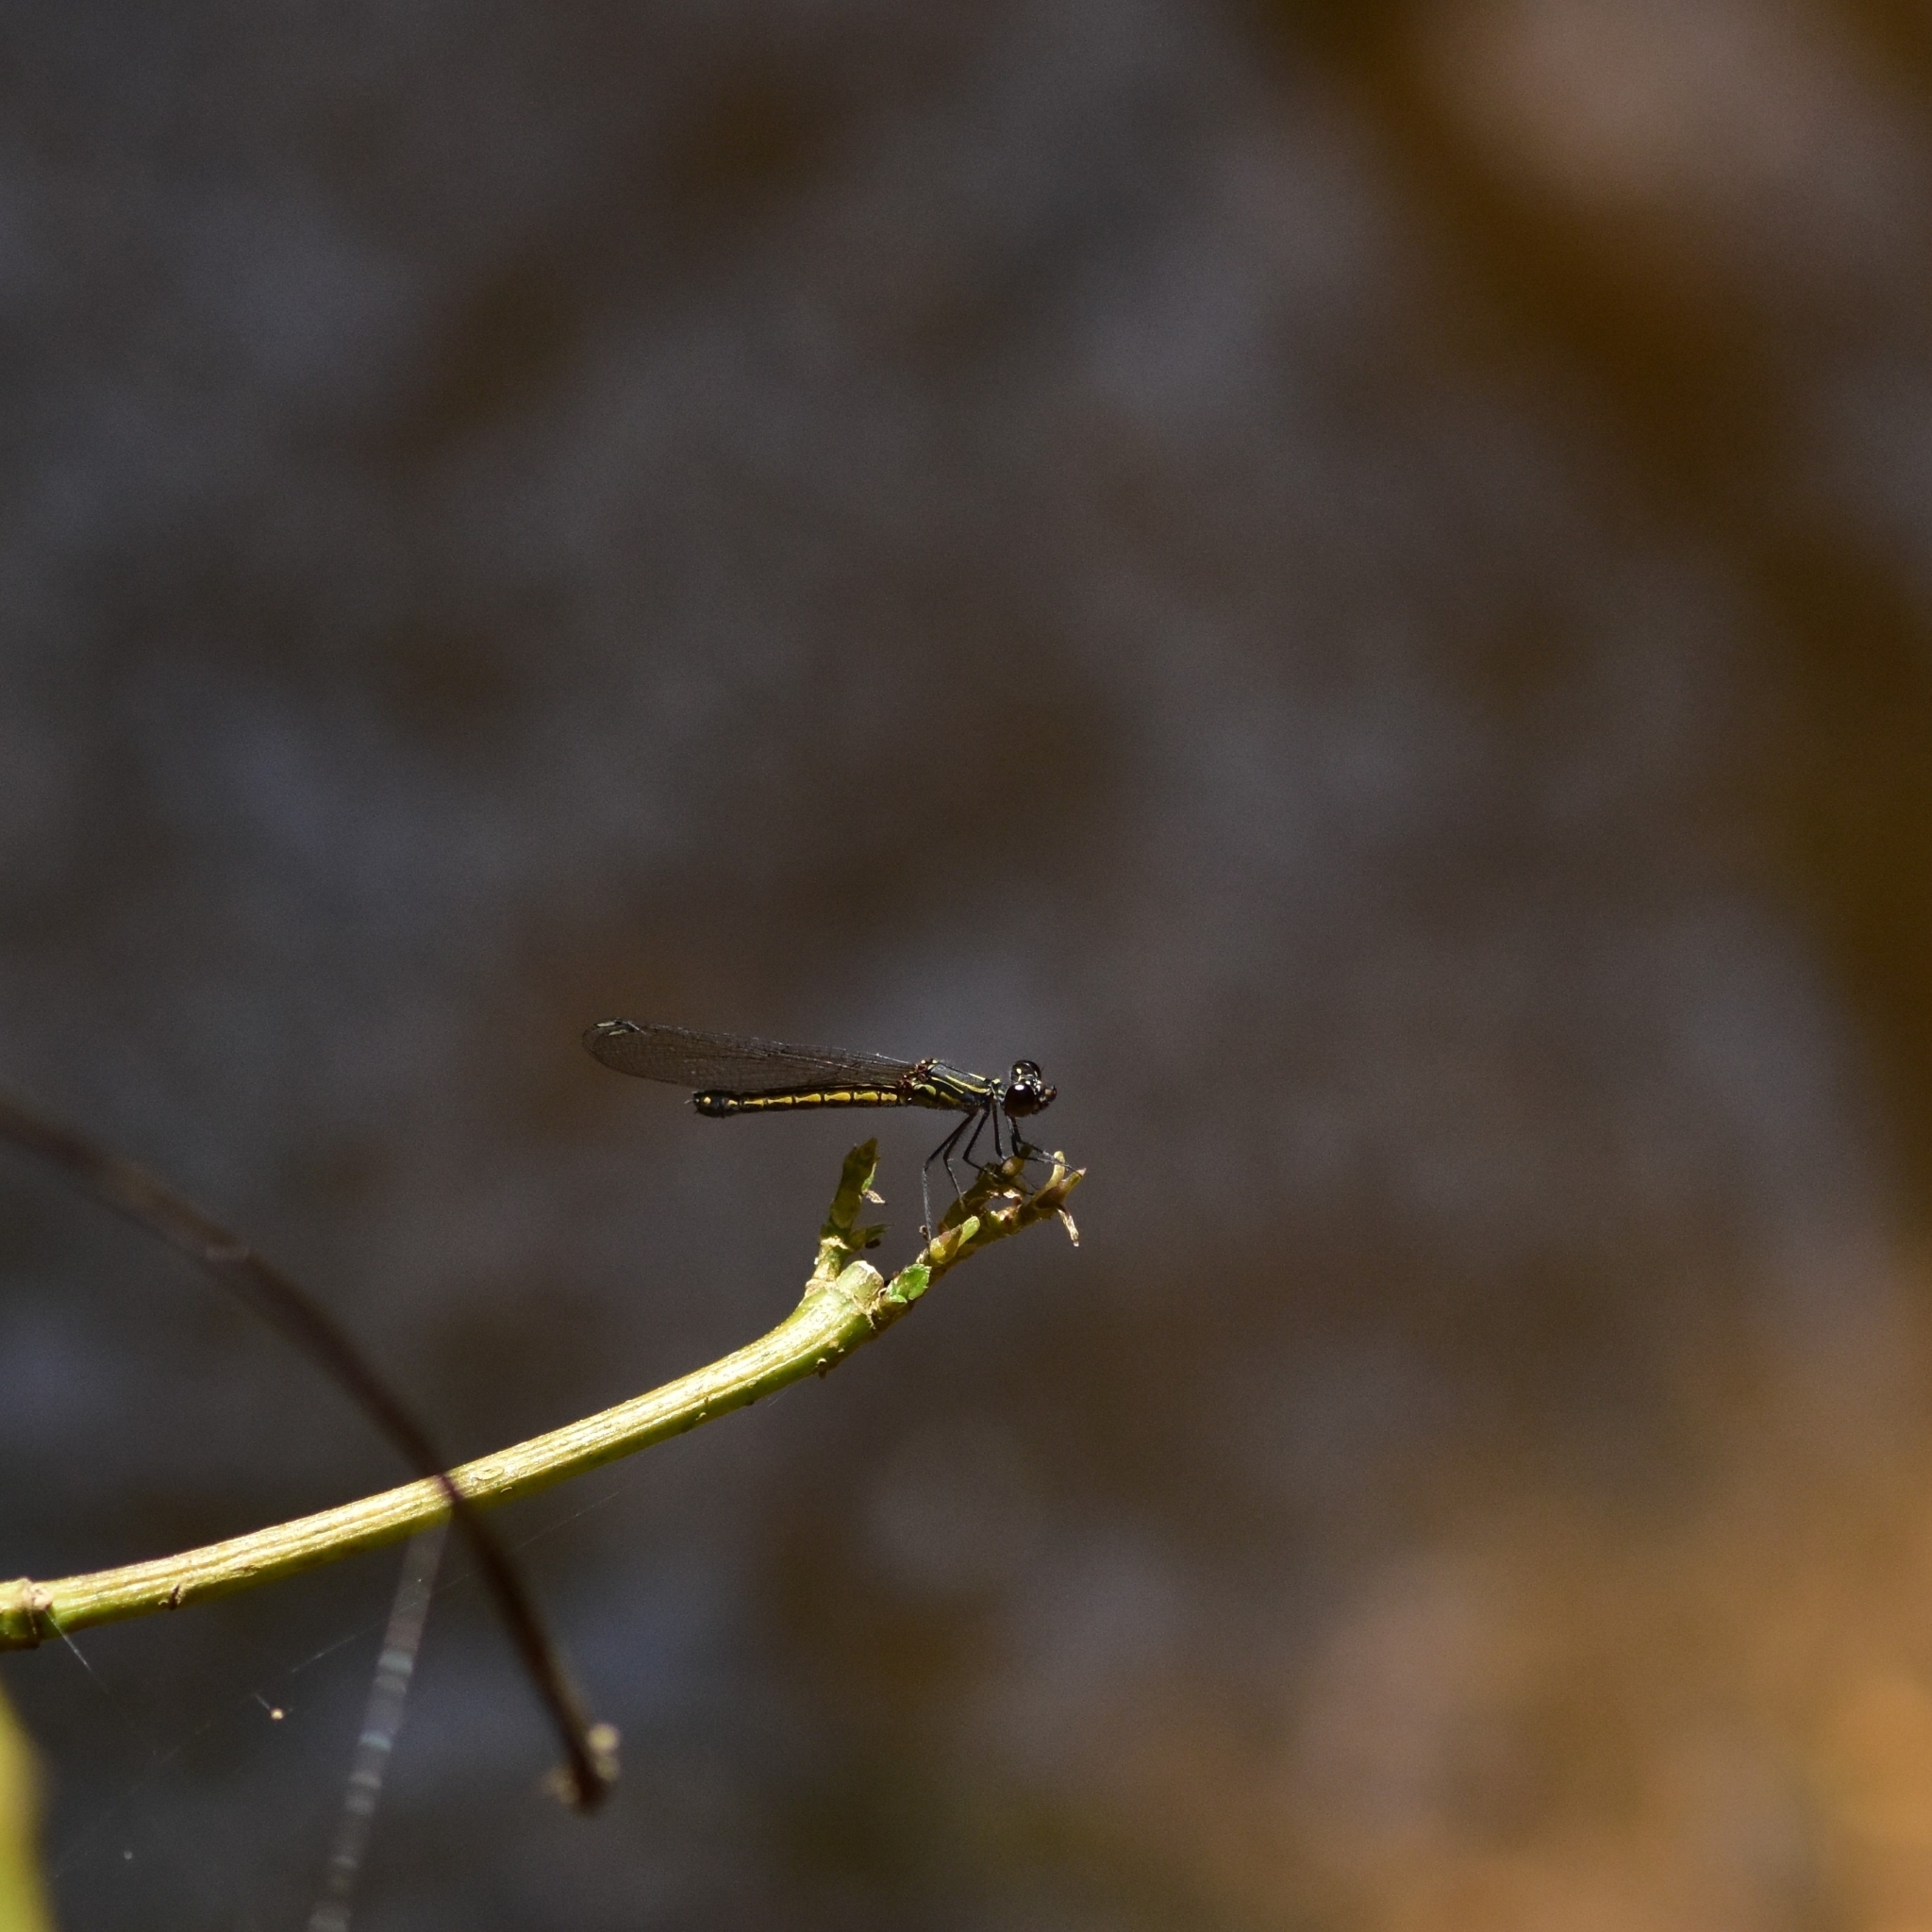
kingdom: Animalia
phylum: Arthropoda
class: Insecta
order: Odonata
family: Chlorocyphidae
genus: Libellago
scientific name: Libellago indica
